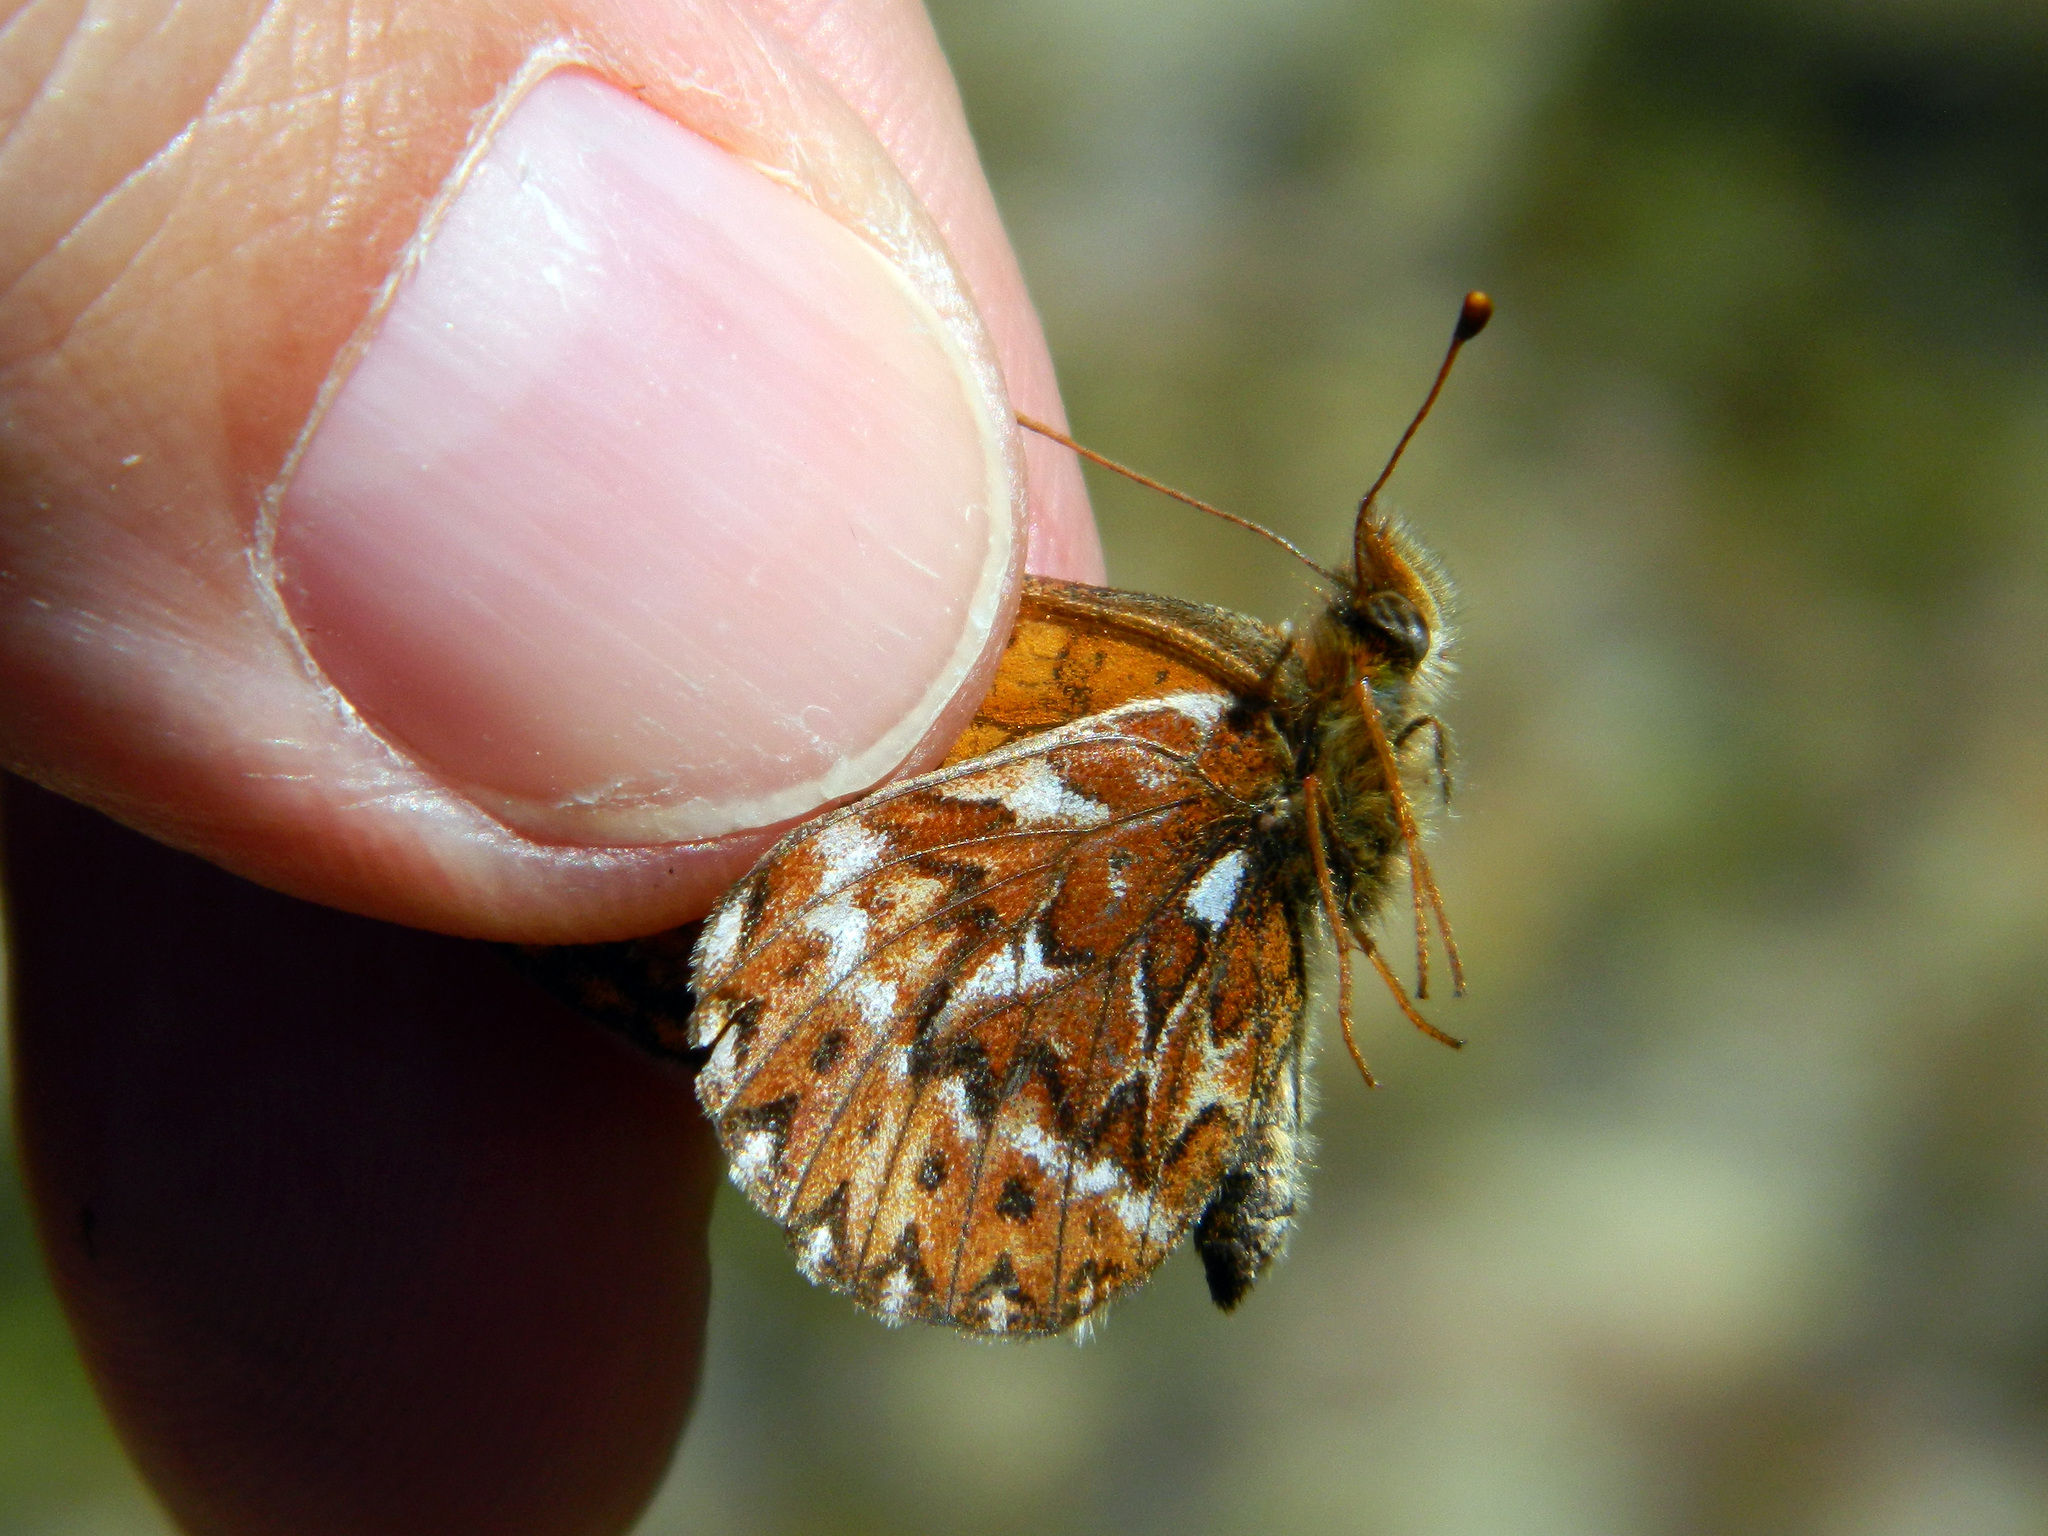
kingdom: Animalia
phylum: Arthropoda
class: Insecta
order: Lepidoptera
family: Nymphalidae
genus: Boloria
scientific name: Boloria freija
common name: Freija fritillary
